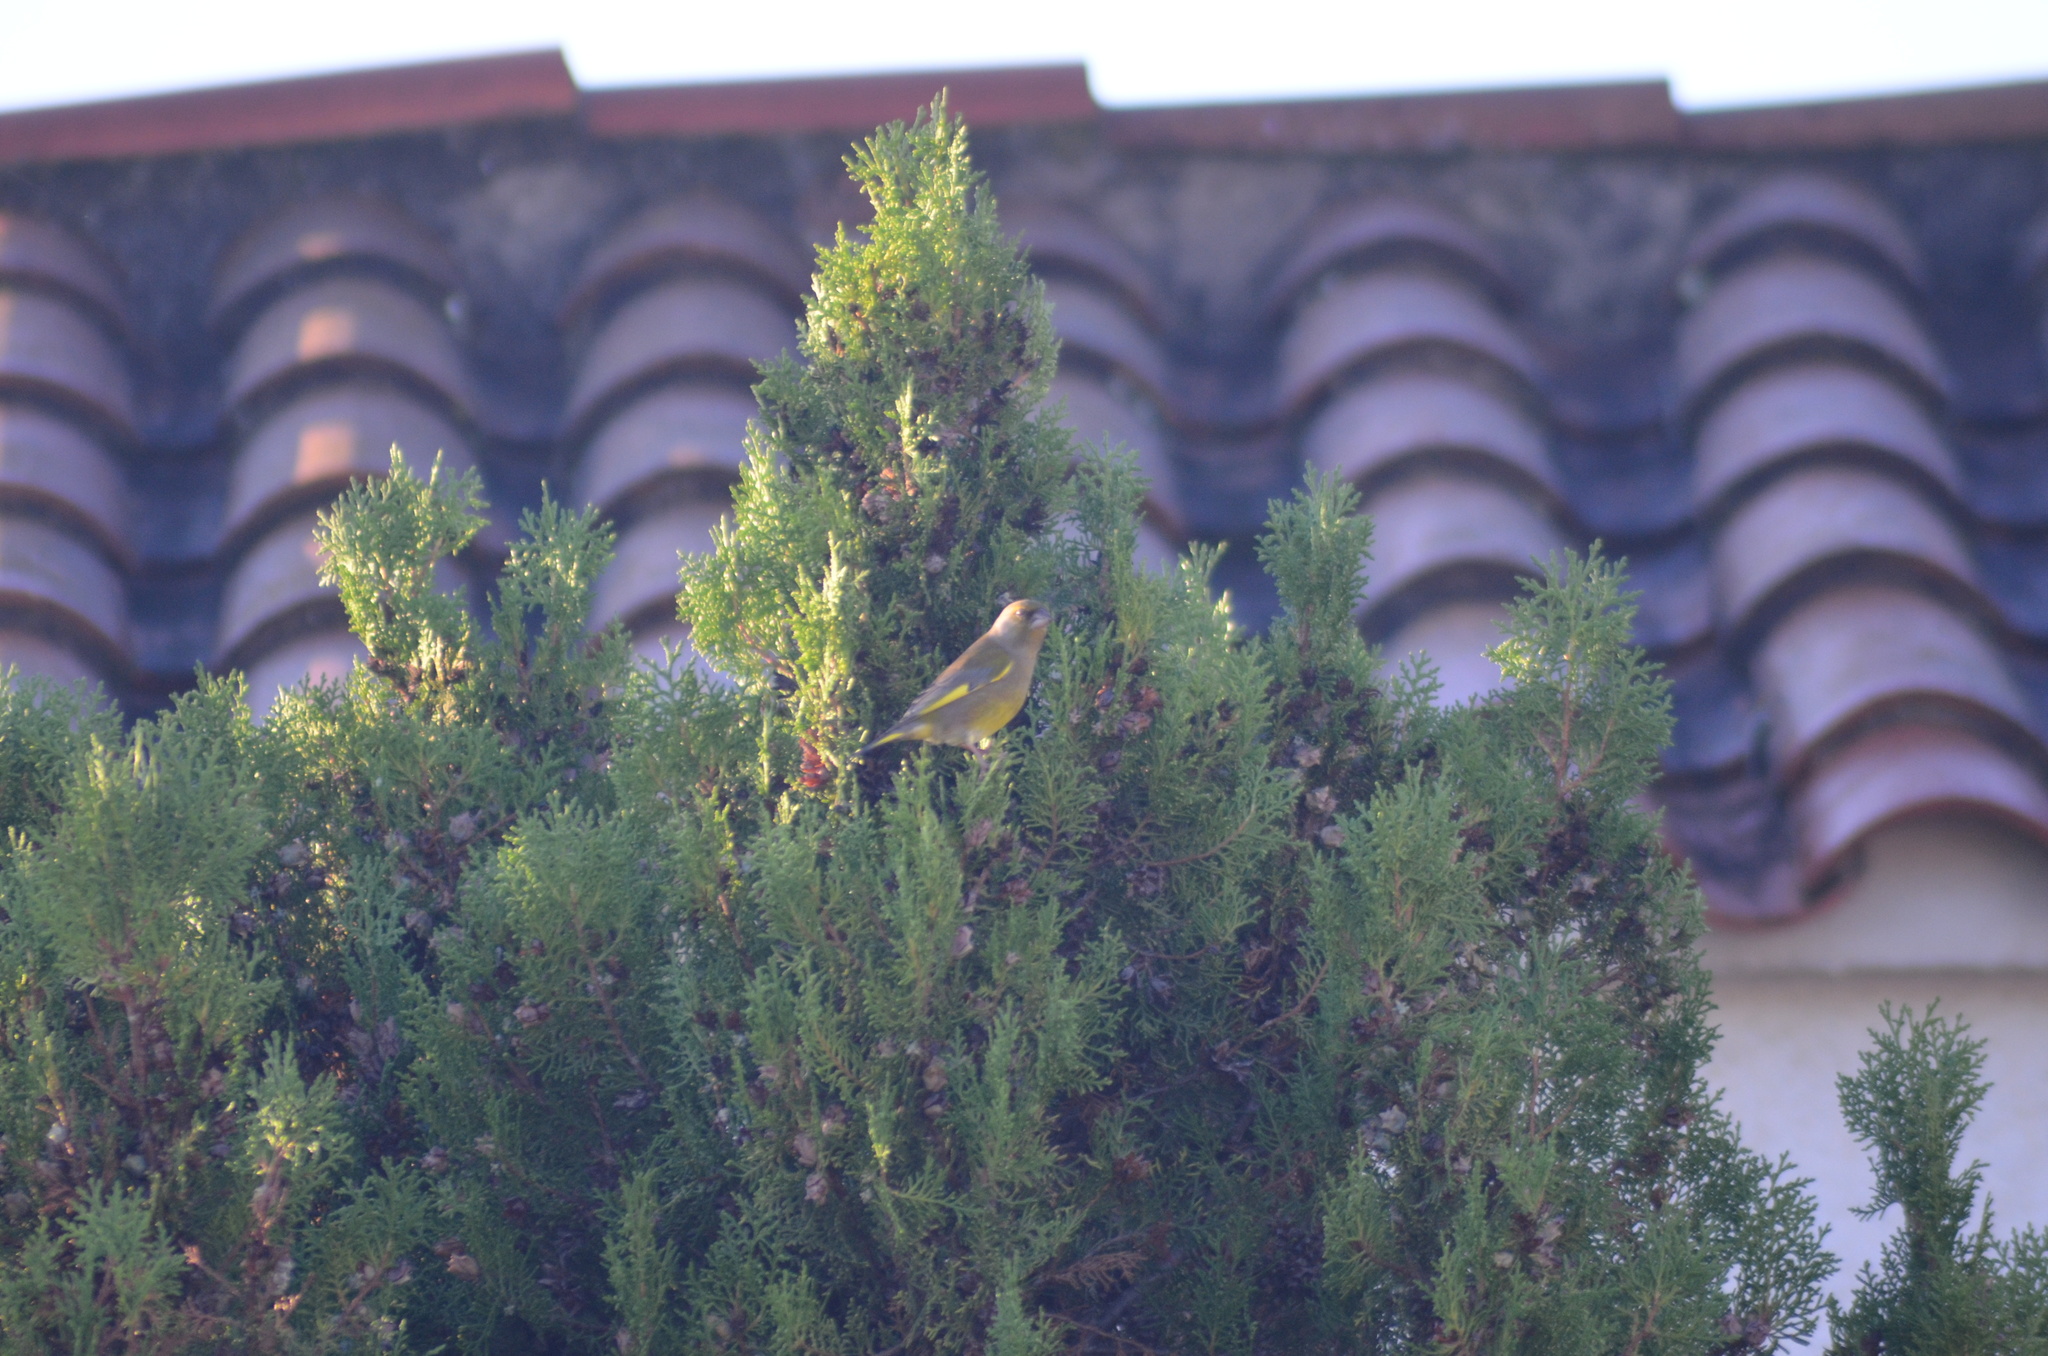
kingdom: Plantae
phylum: Tracheophyta
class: Liliopsida
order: Poales
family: Poaceae
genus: Chloris
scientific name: Chloris chloris
